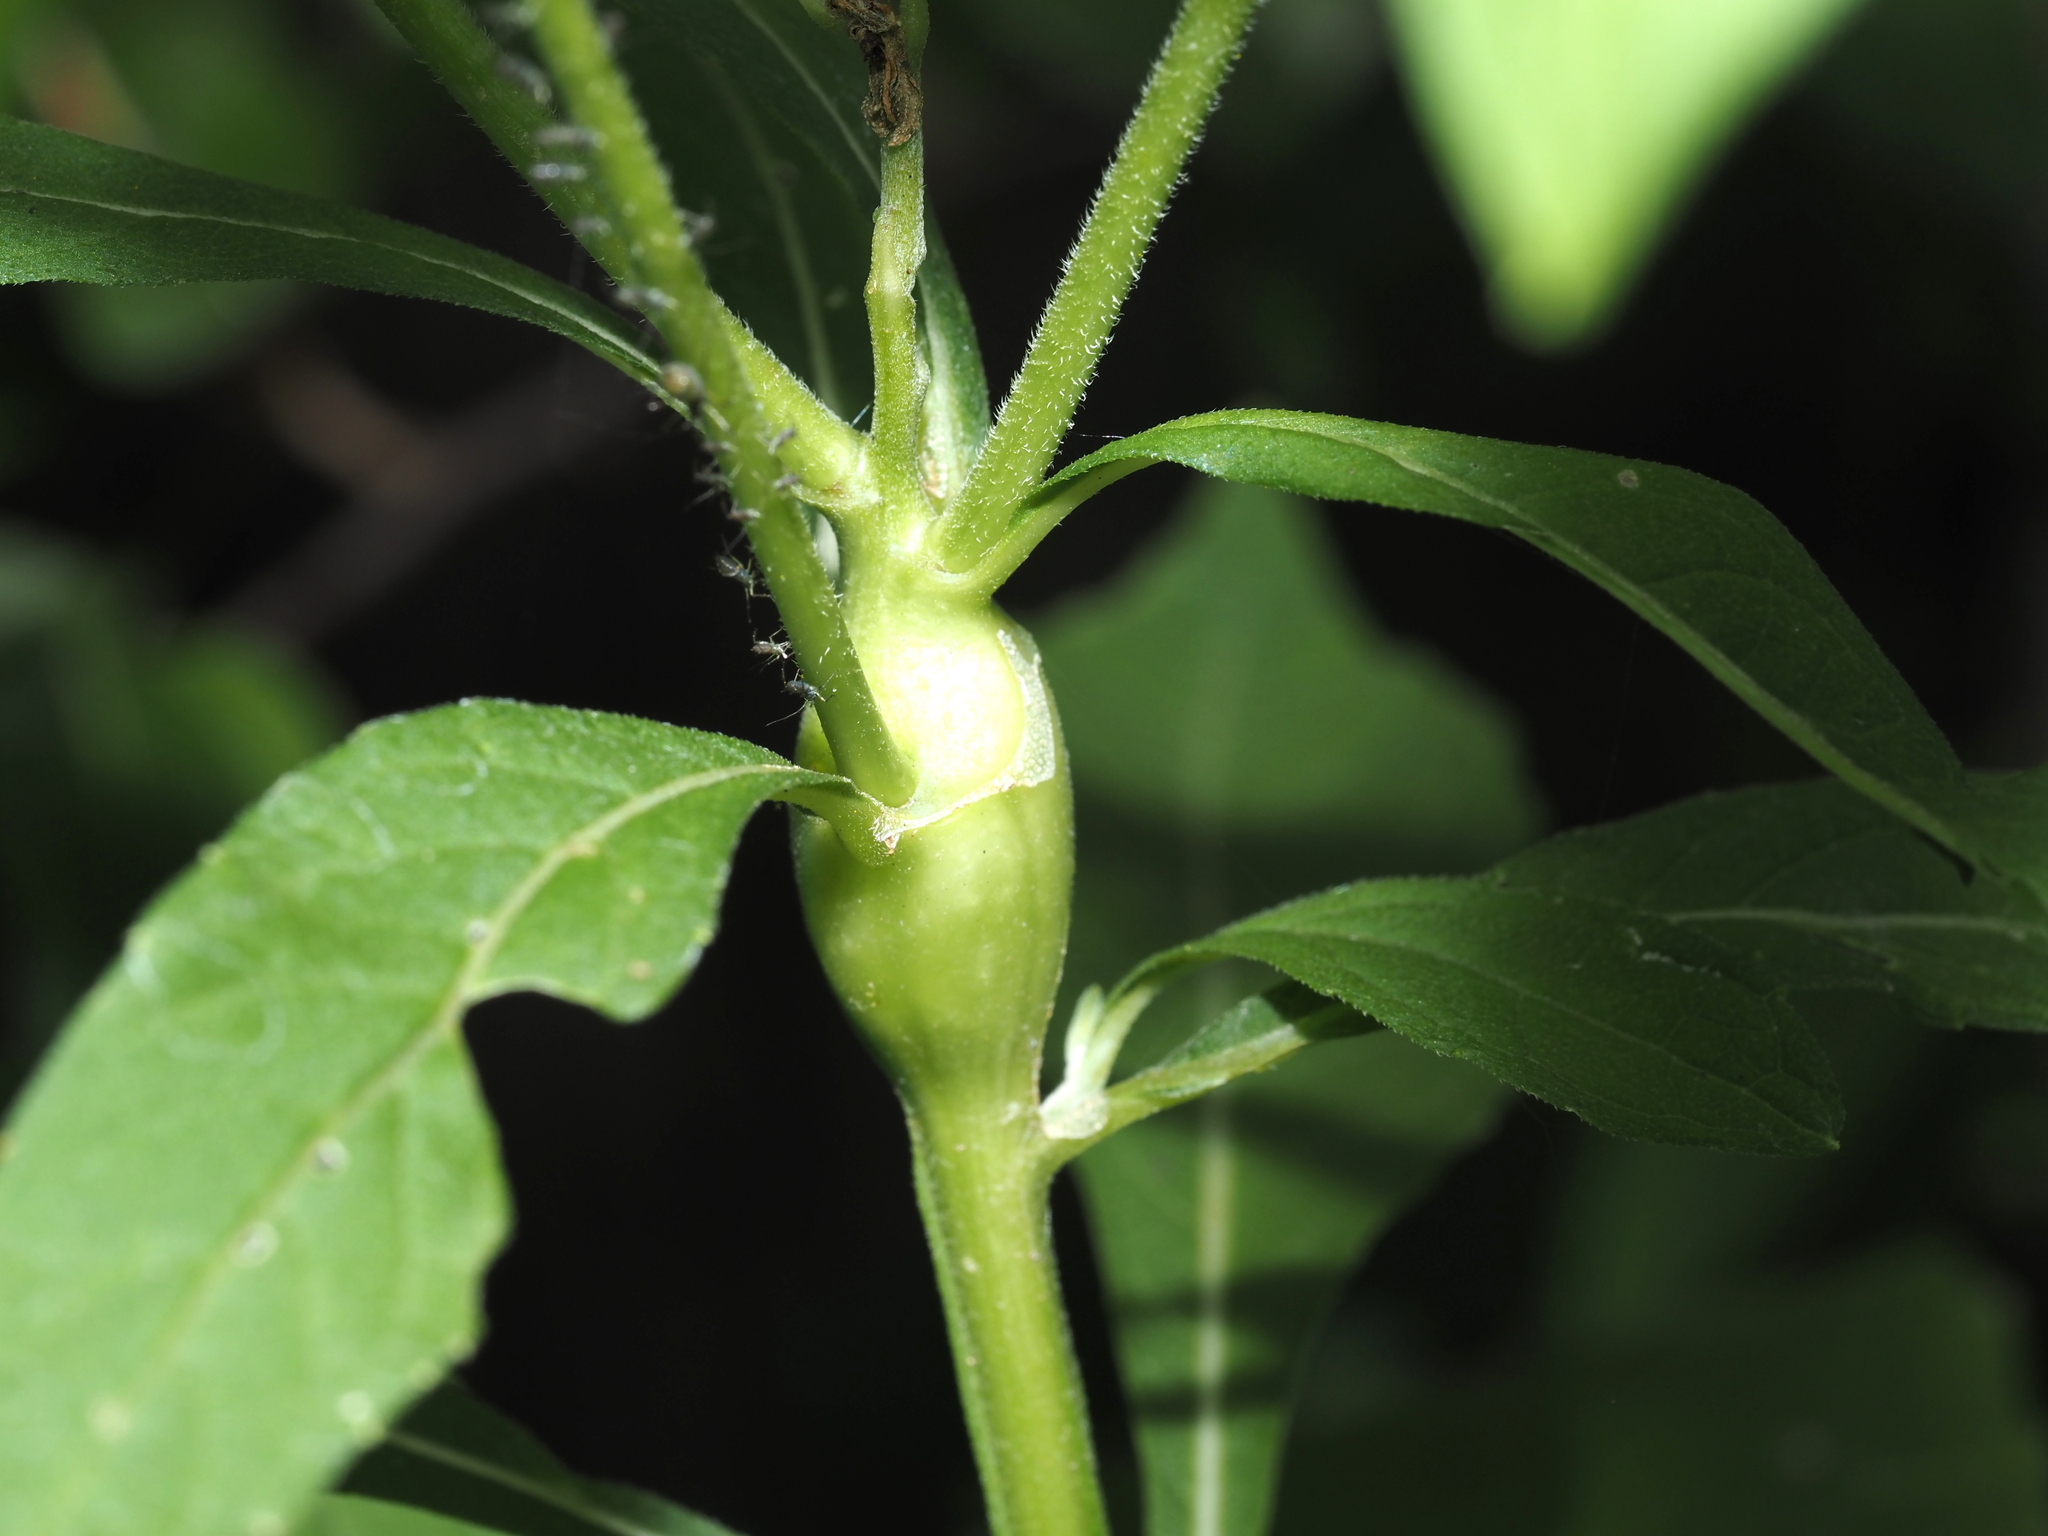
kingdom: Animalia
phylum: Arthropoda
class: Insecta
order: Diptera
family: Cecidomyiidae
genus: Neolasioptera
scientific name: Neolasioptera verbesinae
